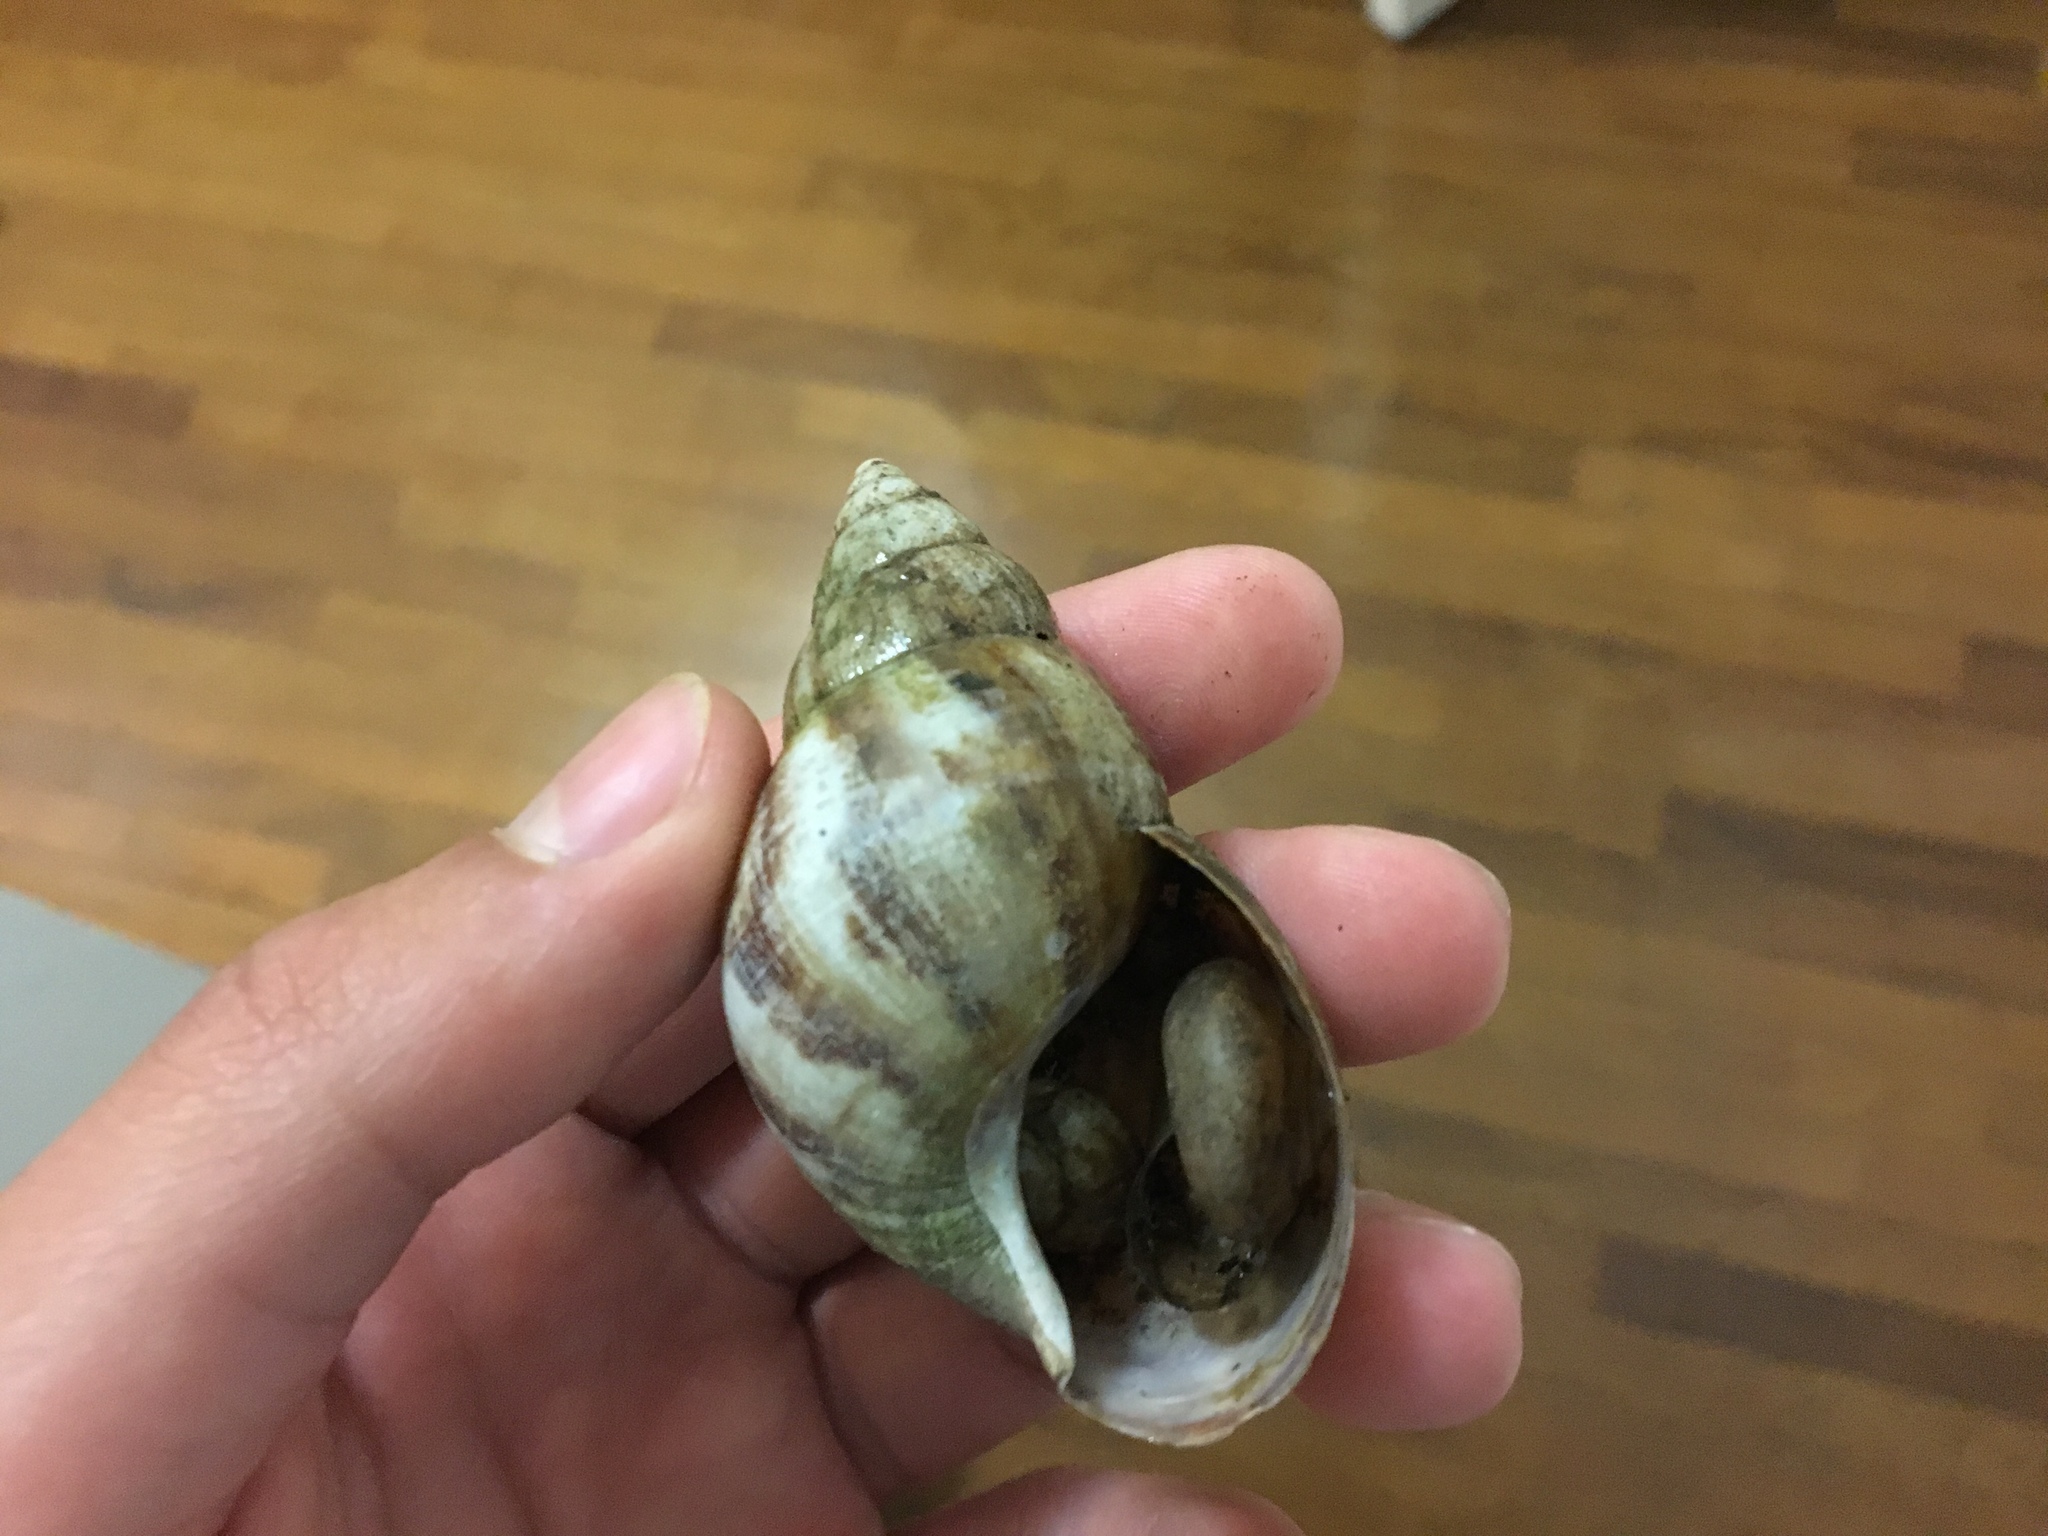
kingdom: Animalia
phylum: Mollusca
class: Gastropoda
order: Stylommatophora
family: Achatinidae
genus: Lissachatina
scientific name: Lissachatina fulica
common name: Giant african snail
